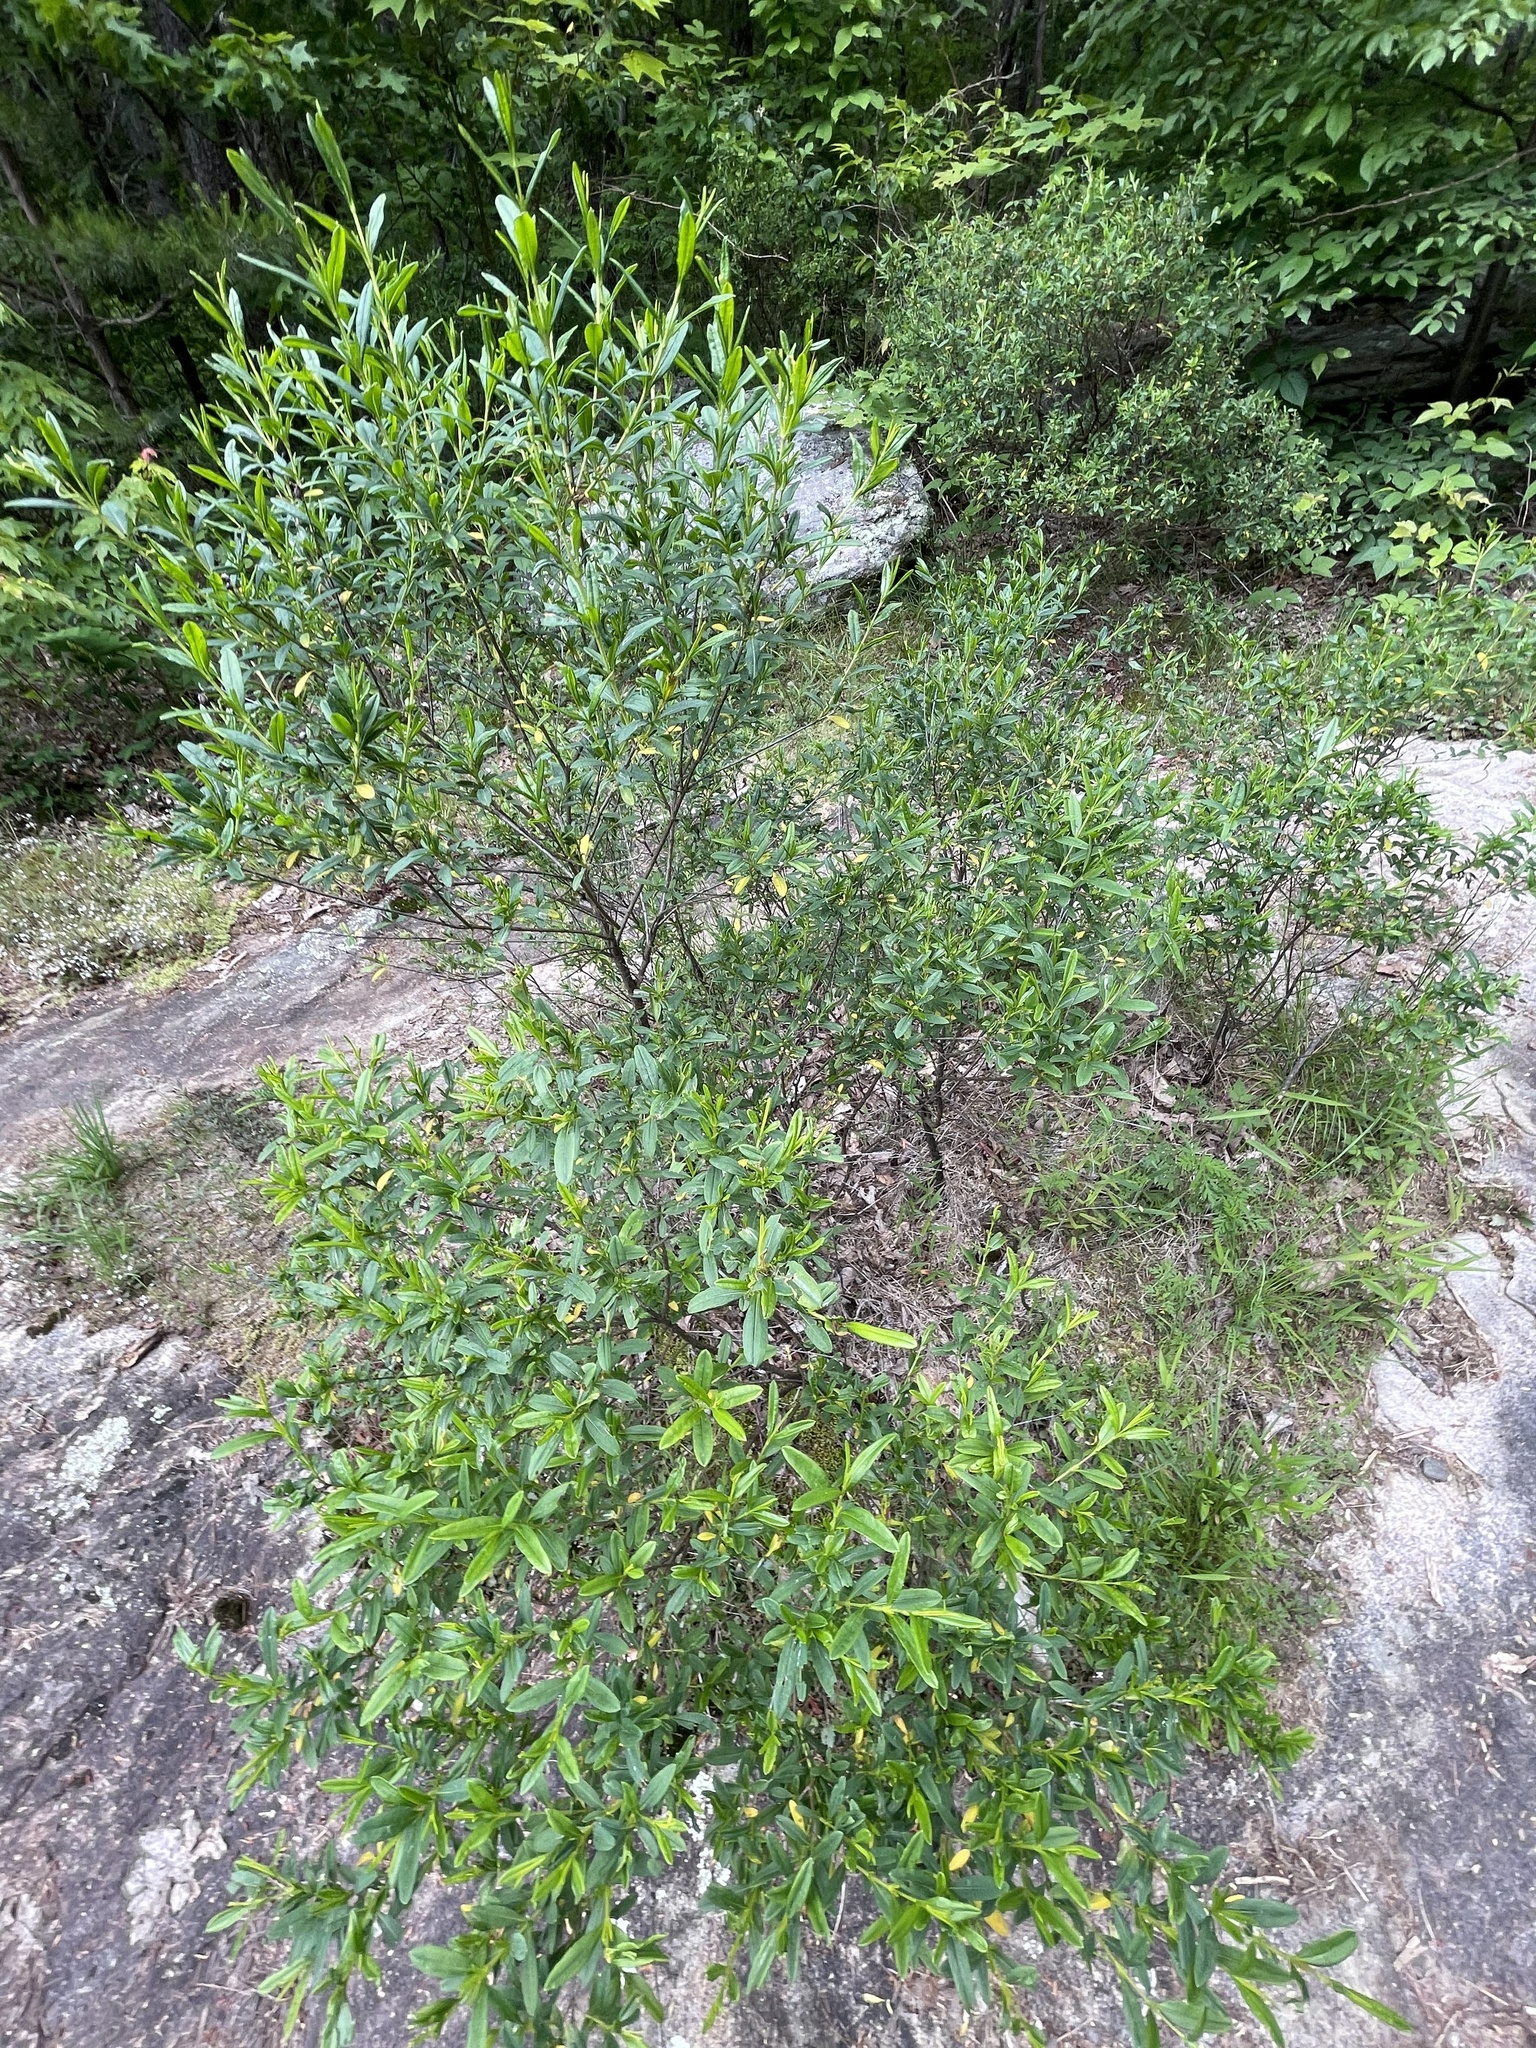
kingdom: Plantae
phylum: Tracheophyta
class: Magnoliopsida
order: Malpighiales
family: Hypericaceae
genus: Hypericum
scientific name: Hypericum prolificum
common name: Shrubby st. john's-wort
